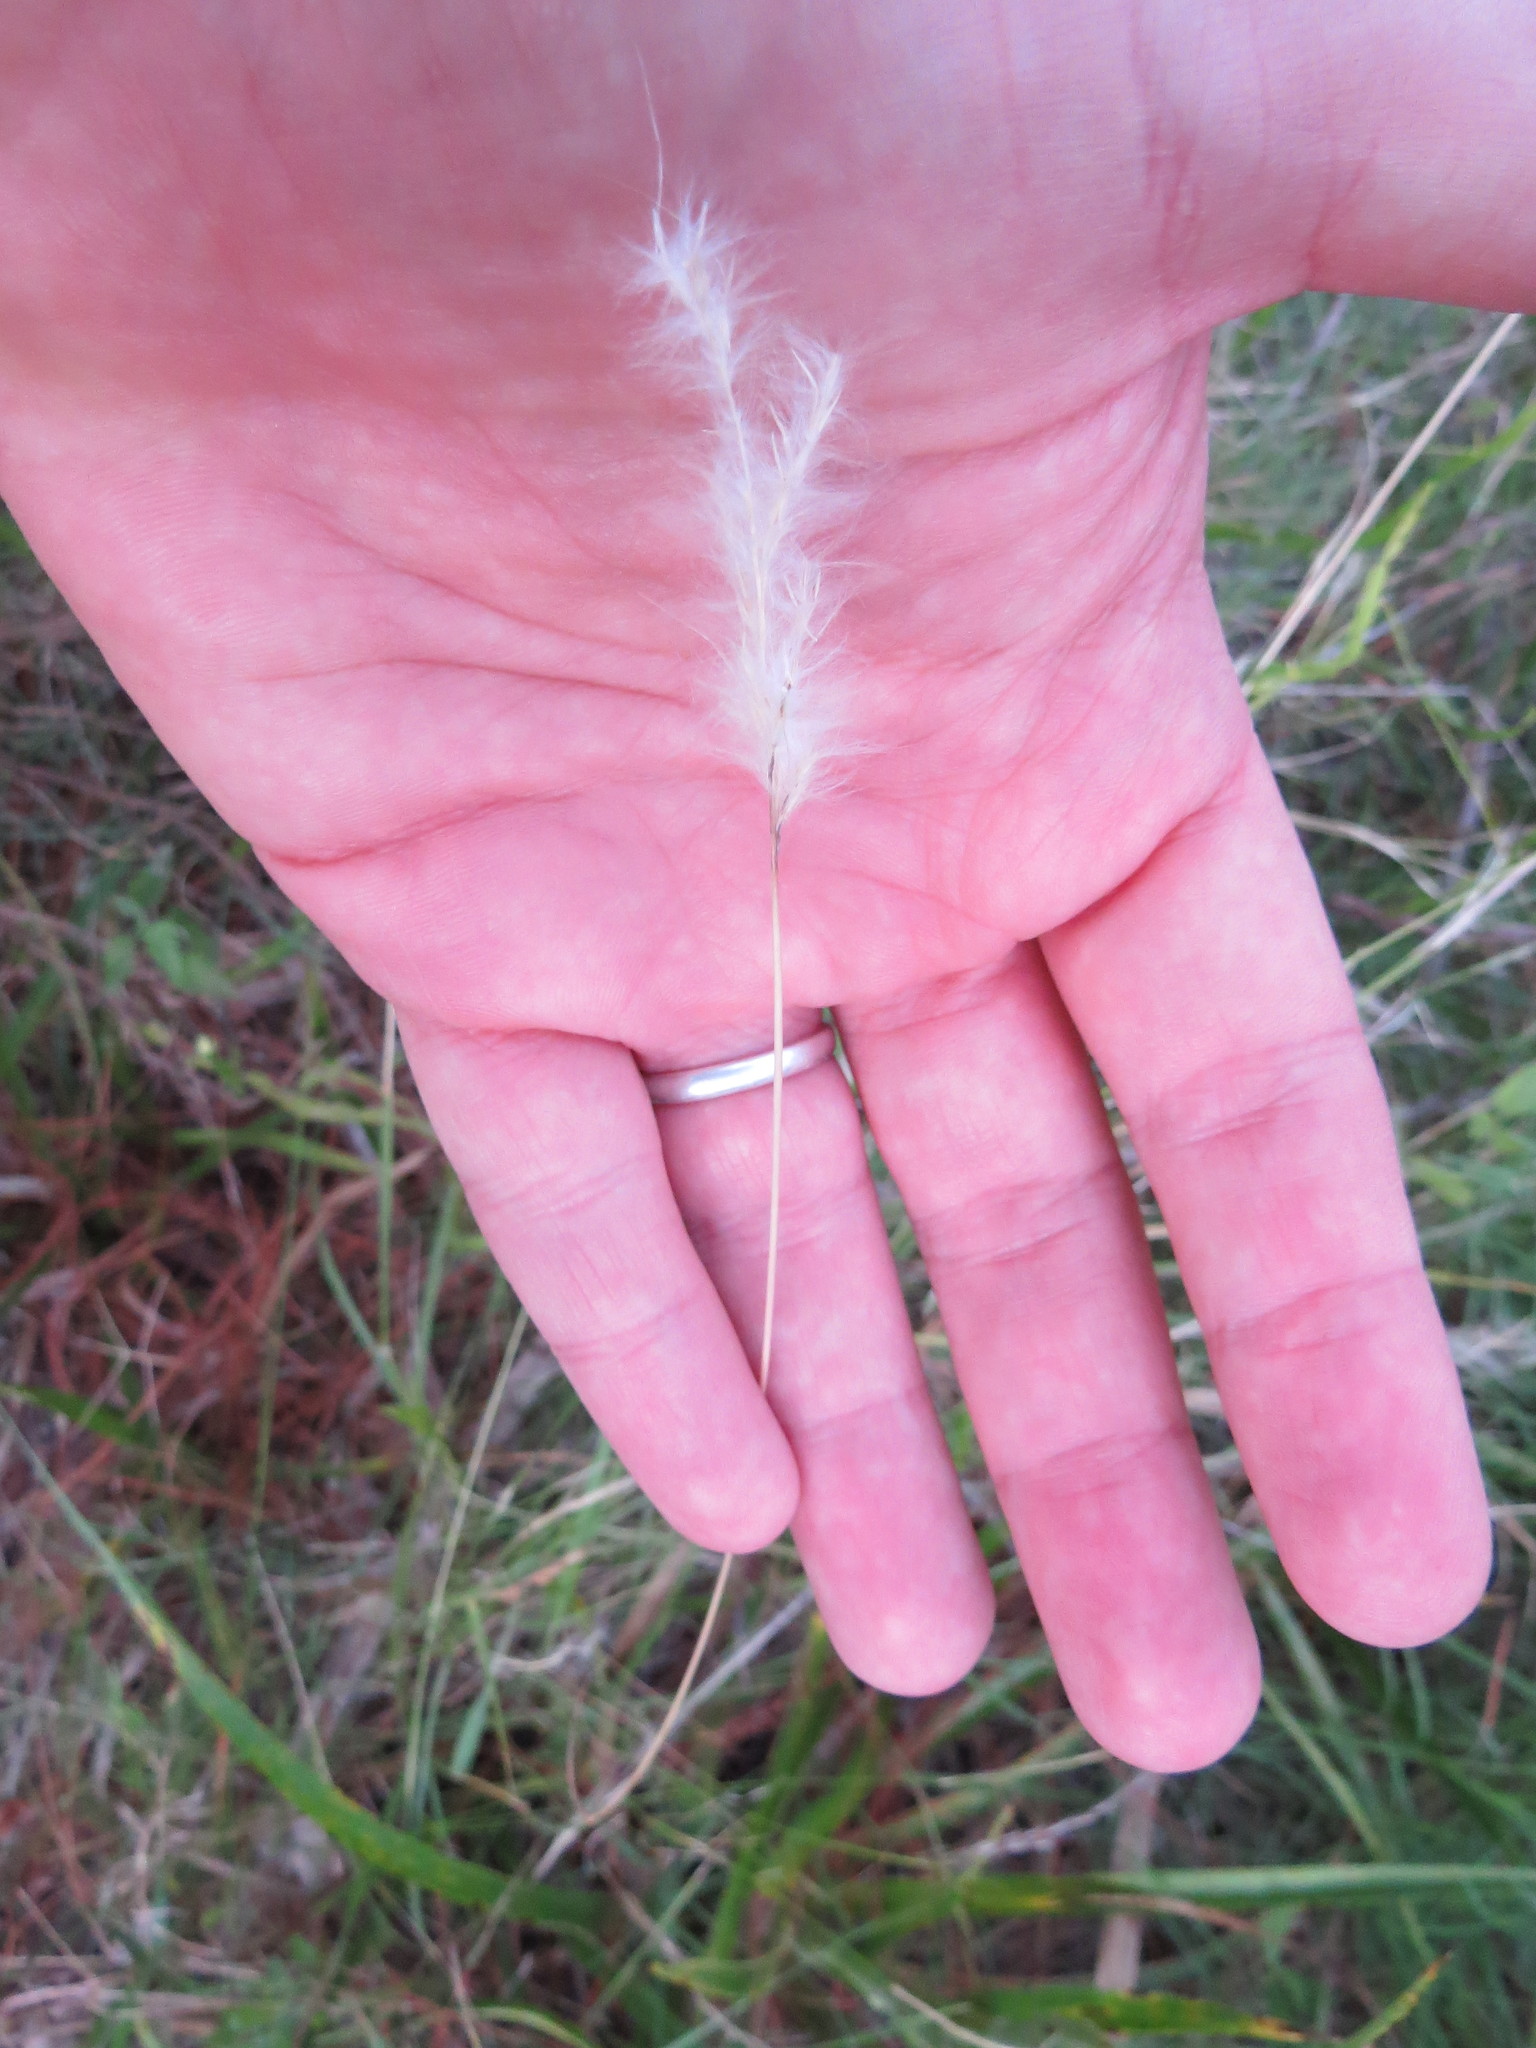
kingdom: Plantae
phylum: Tracheophyta
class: Liliopsida
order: Poales
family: Poaceae
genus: Bothriochloa
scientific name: Bothriochloa laguroides
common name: Silver bluestem
